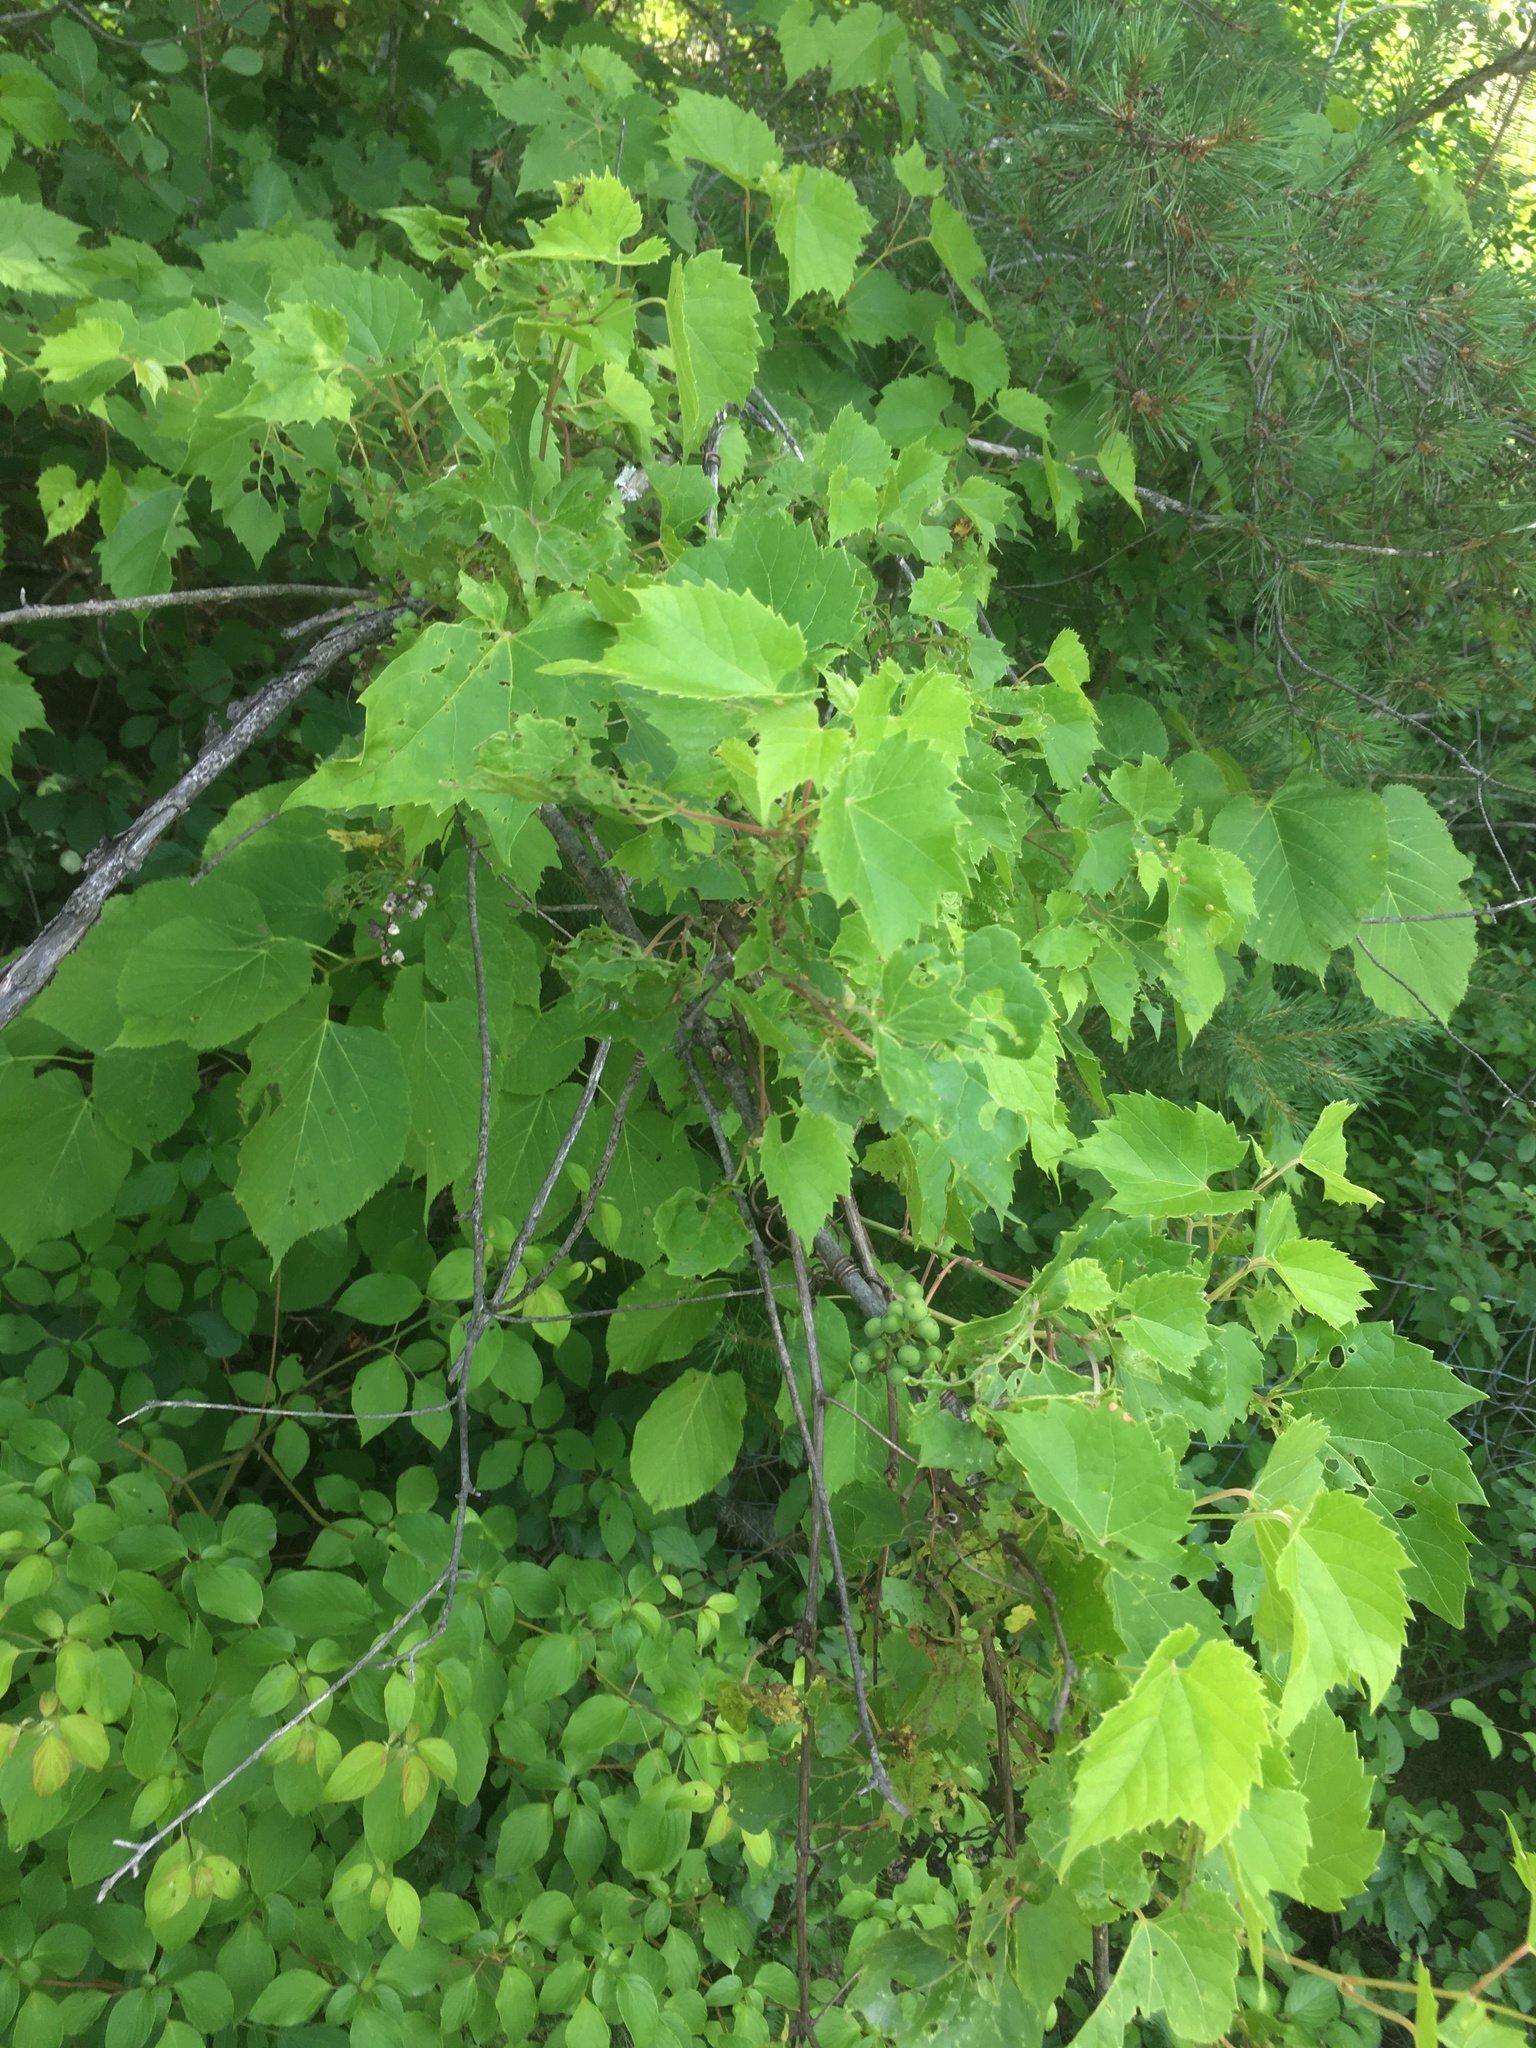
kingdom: Plantae
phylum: Tracheophyta
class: Magnoliopsida
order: Vitales
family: Vitaceae
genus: Vitis
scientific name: Vitis riparia
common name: Frost grape
